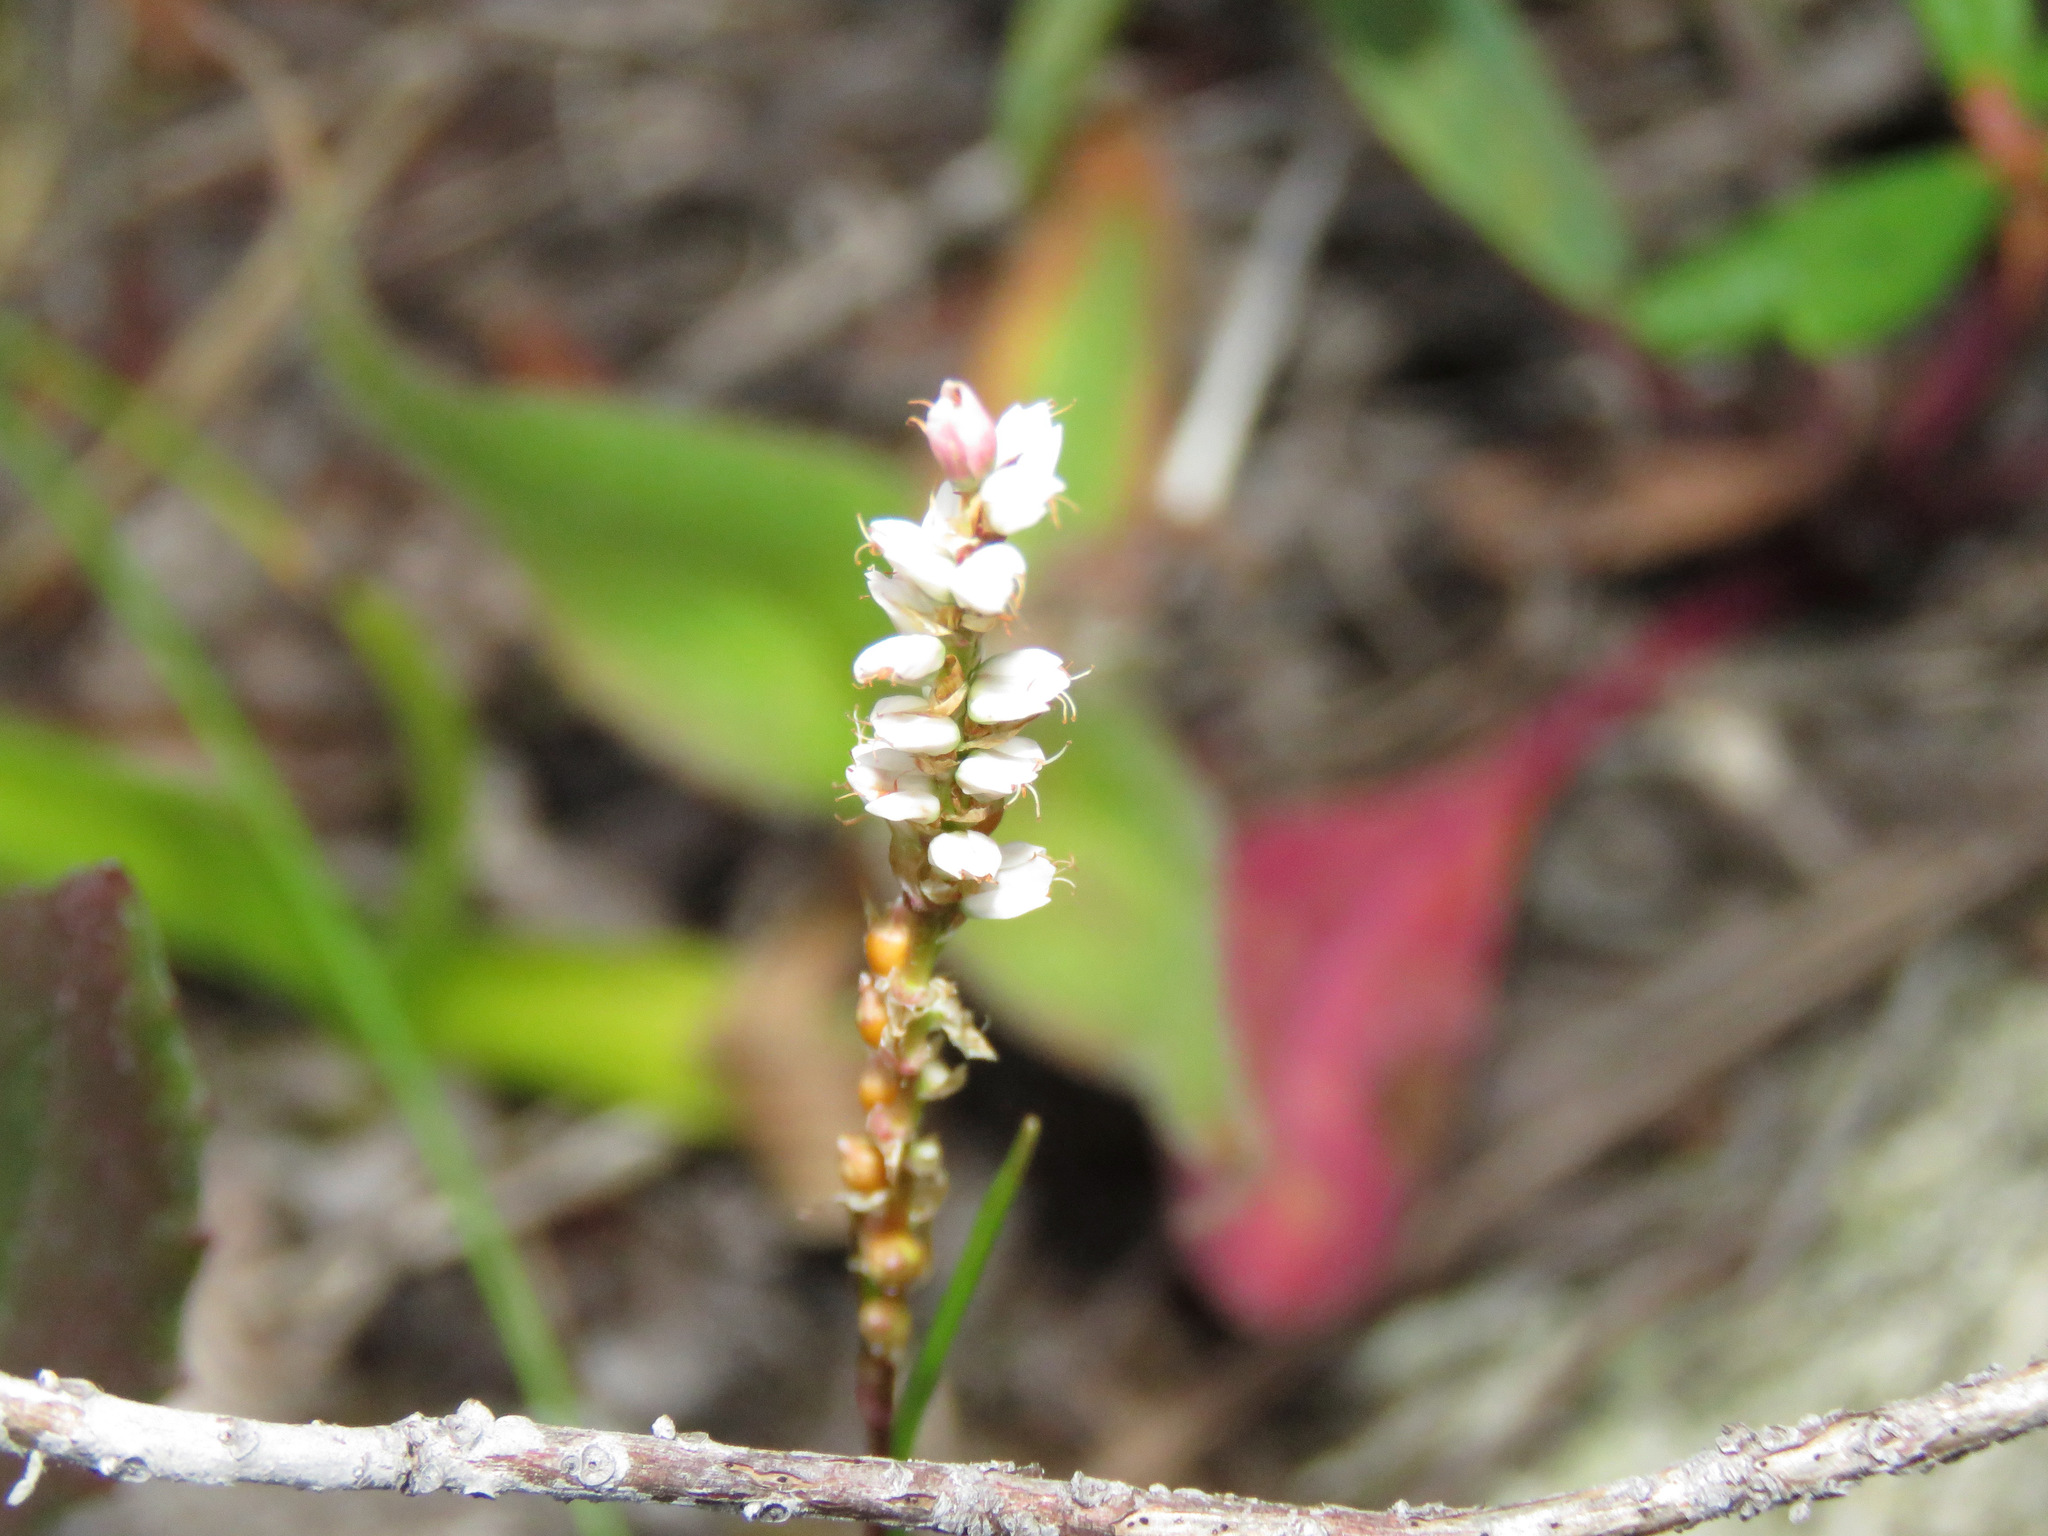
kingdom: Plantae
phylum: Tracheophyta
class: Magnoliopsida
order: Caryophyllales
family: Polygonaceae
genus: Bistorta
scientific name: Bistorta vivipara
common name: Alpine bistort
